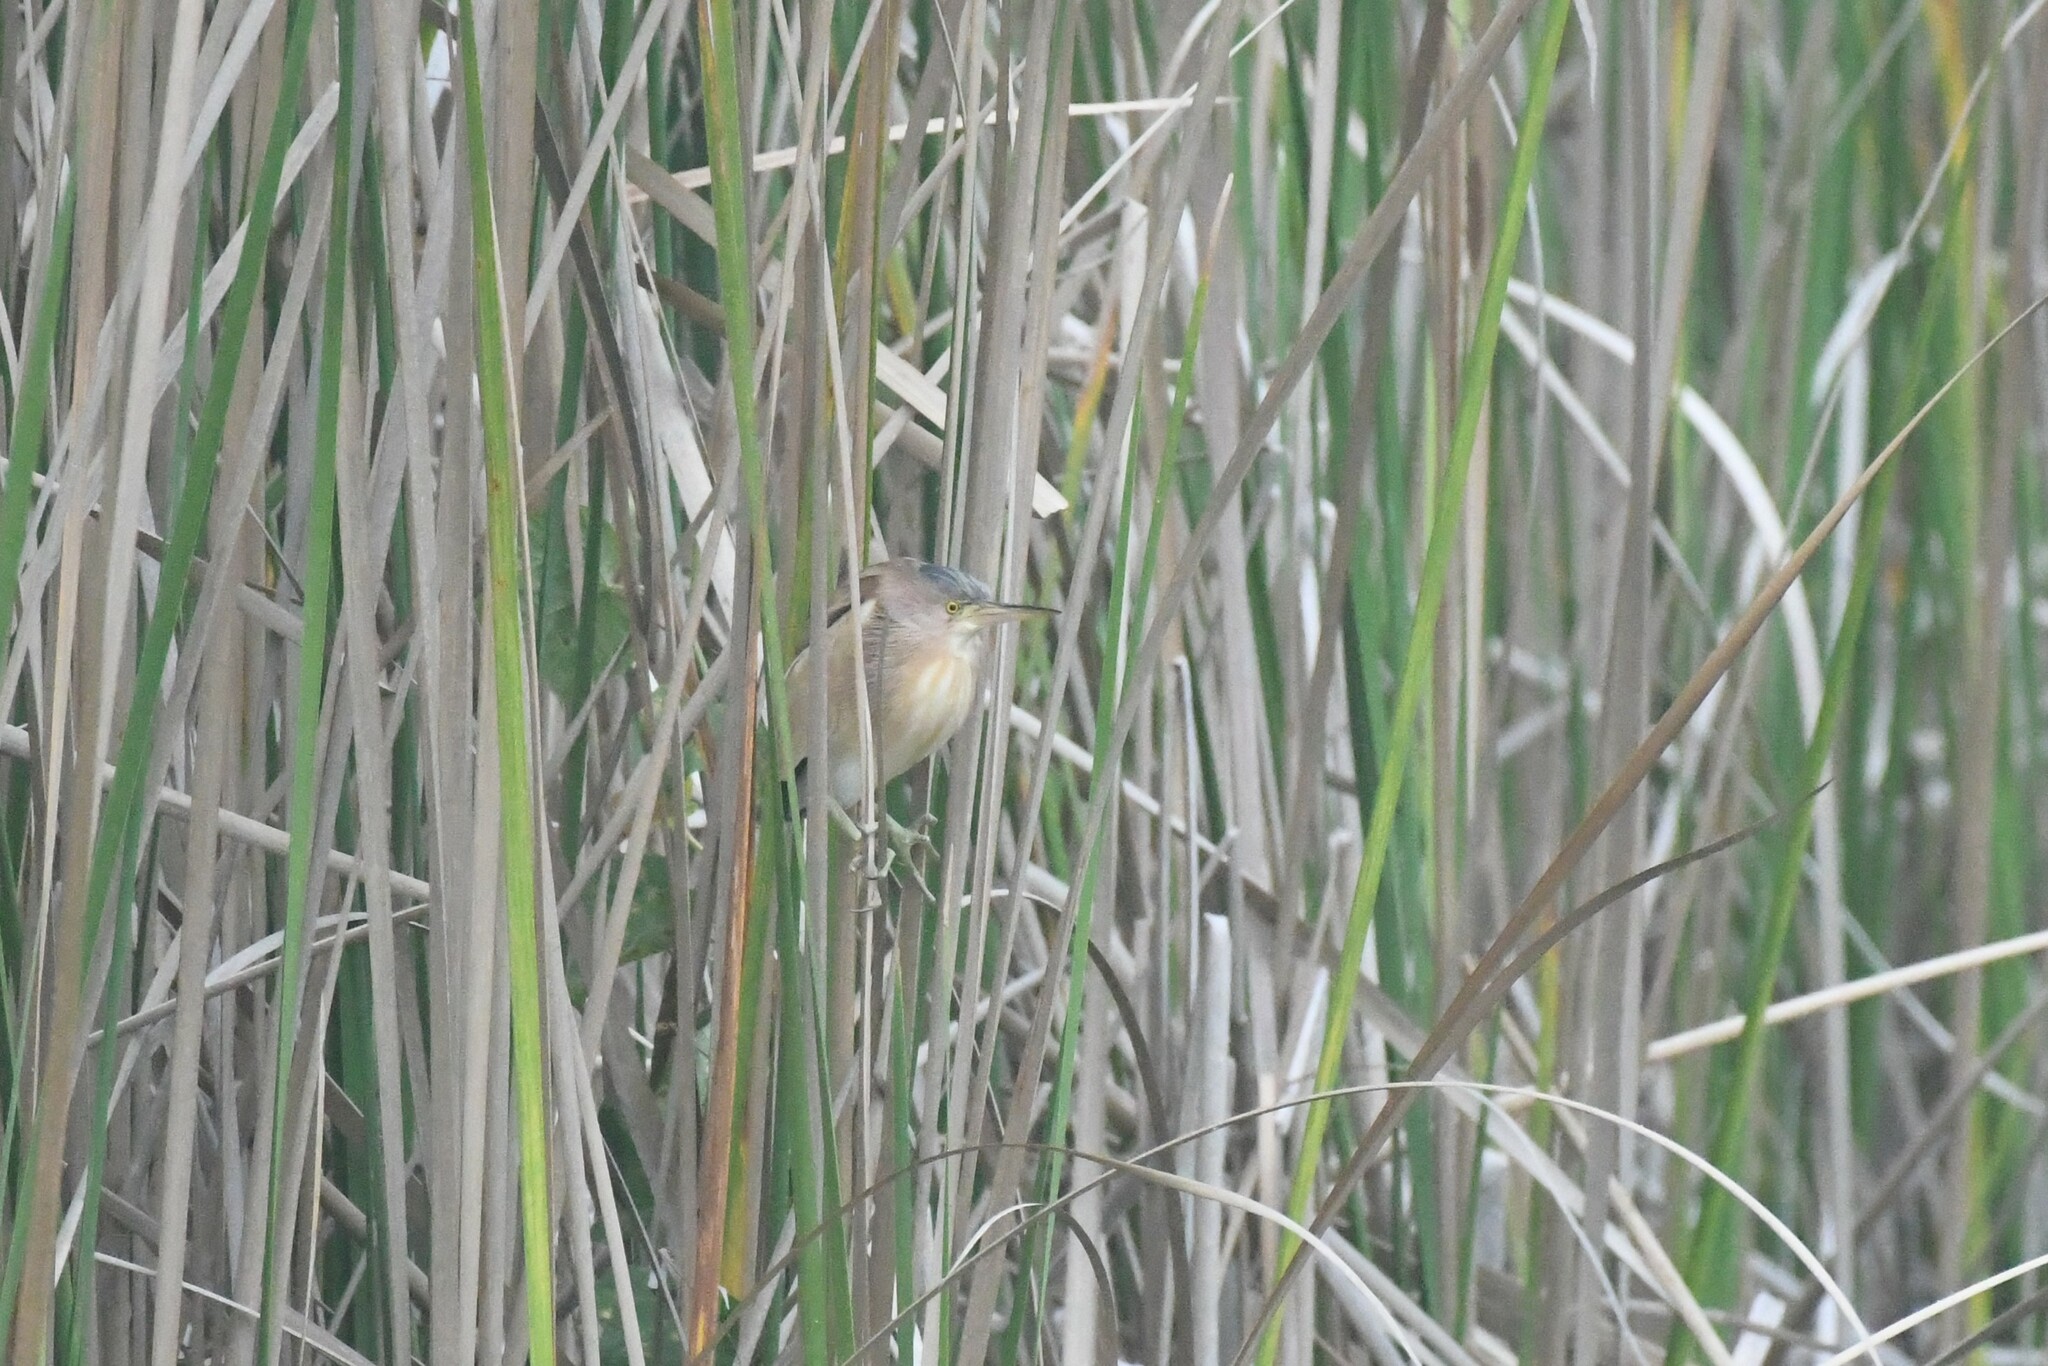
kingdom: Animalia
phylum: Chordata
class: Aves
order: Pelecaniformes
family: Ardeidae
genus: Ixobrychus
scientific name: Ixobrychus sinensis
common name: Yellow bittern
